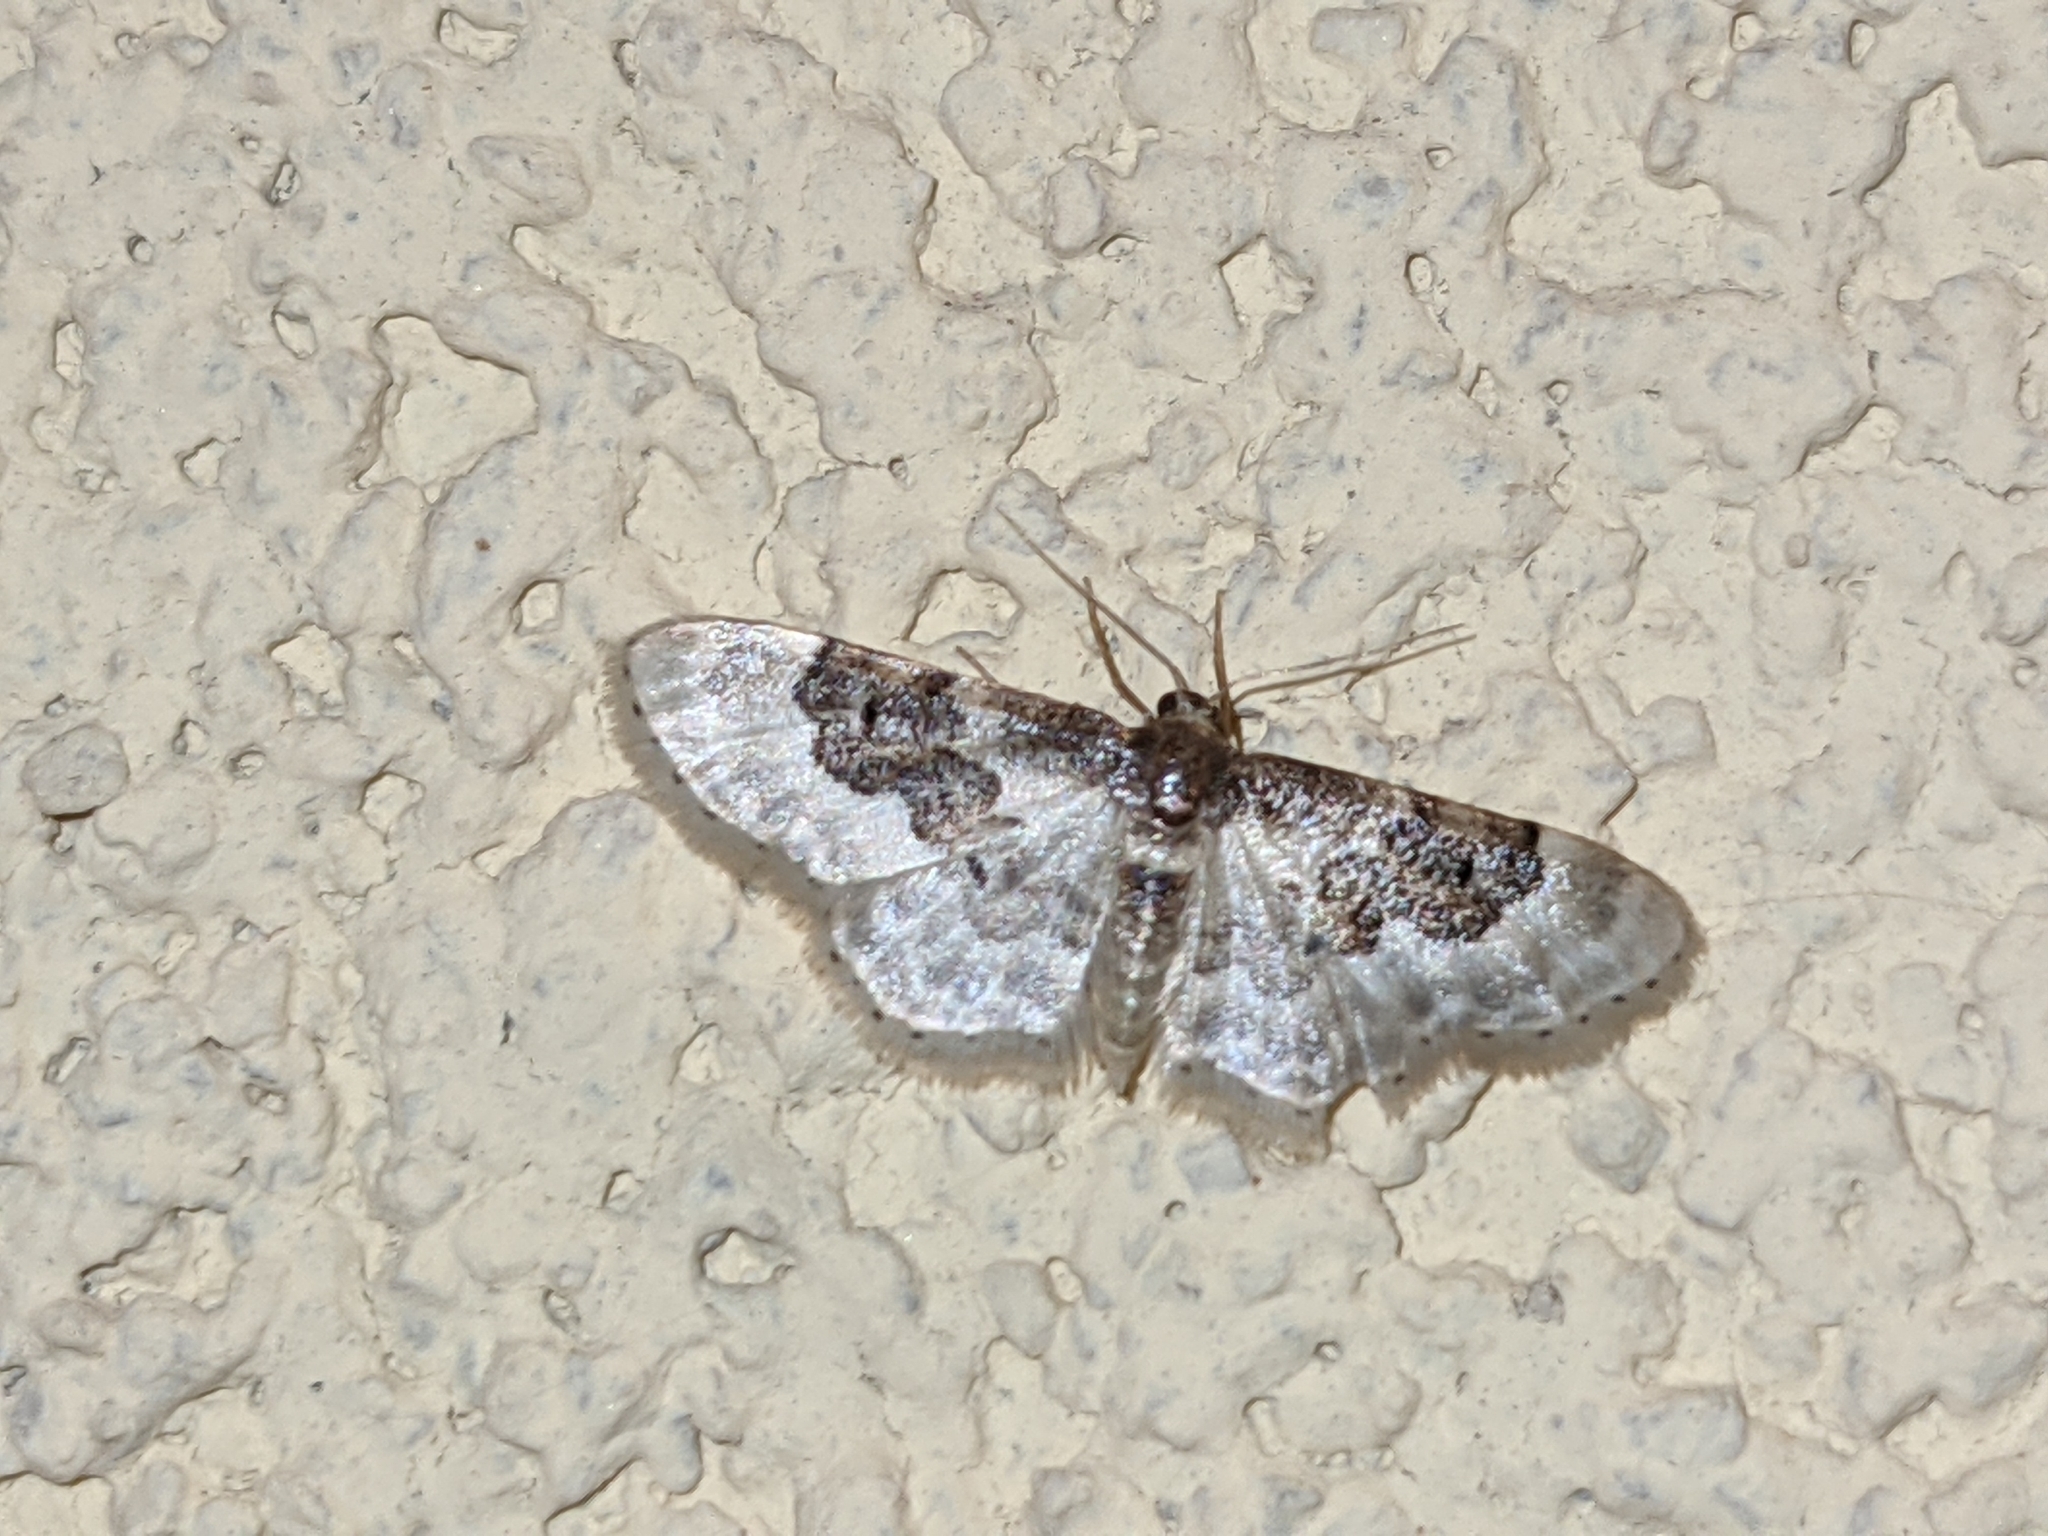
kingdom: Animalia
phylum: Arthropoda
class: Insecta
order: Lepidoptera
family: Geometridae
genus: Idaea
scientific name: Idaea rusticata
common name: Least carpet
